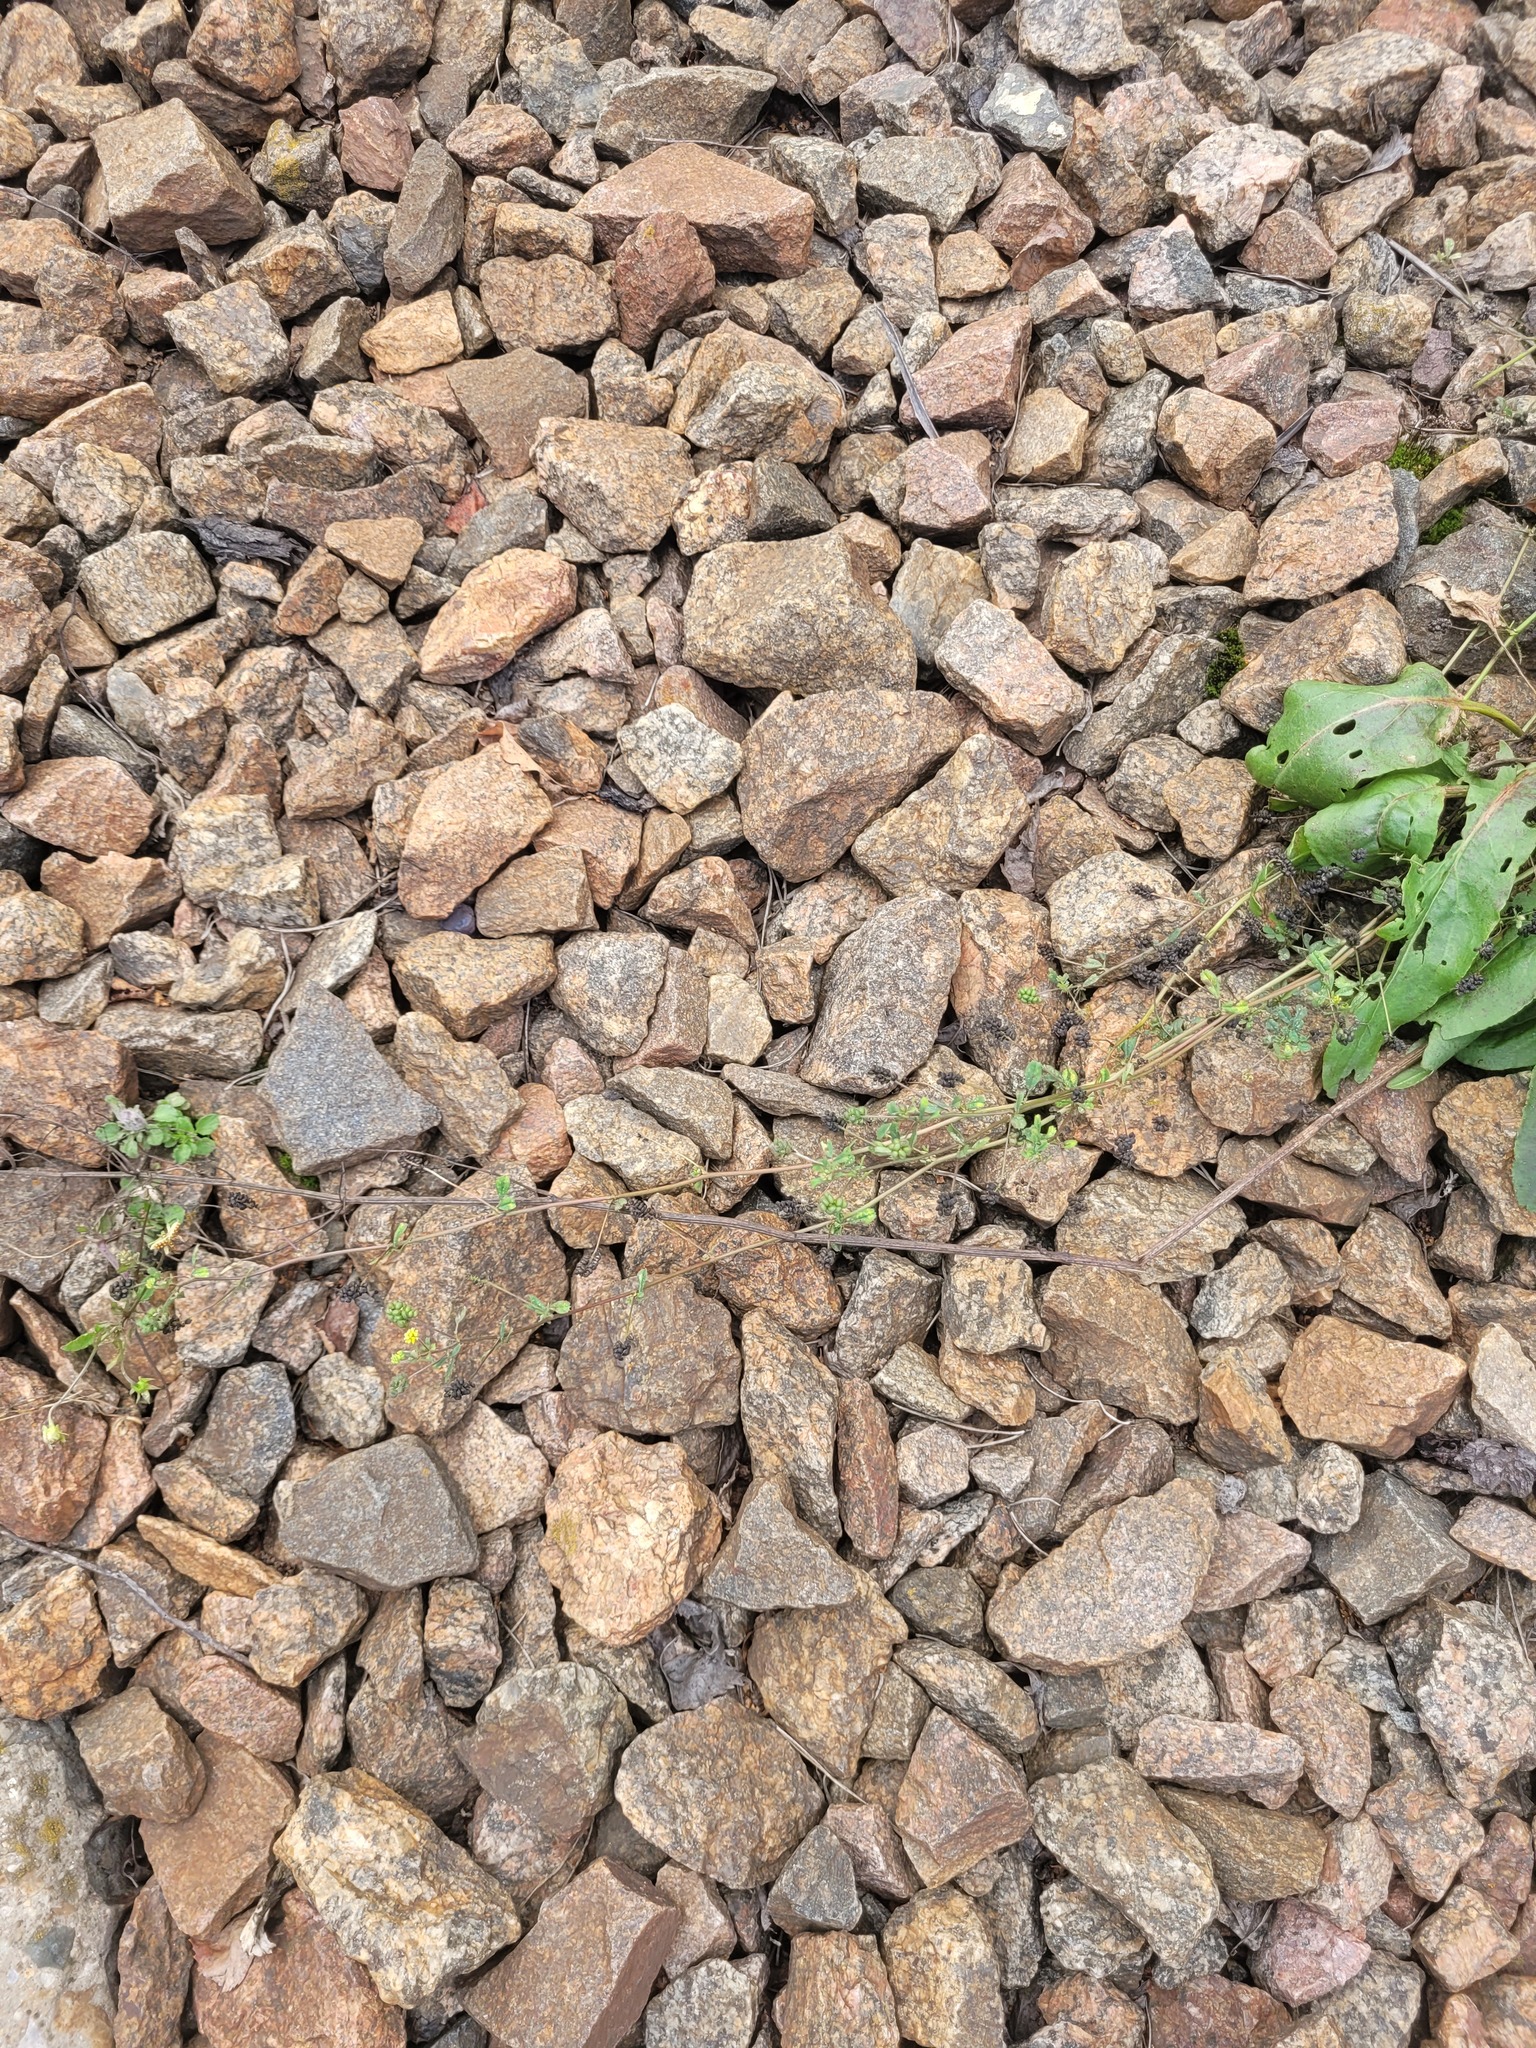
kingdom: Plantae
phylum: Tracheophyta
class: Magnoliopsida
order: Fabales
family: Fabaceae
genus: Medicago
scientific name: Medicago lupulina
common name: Black medick
